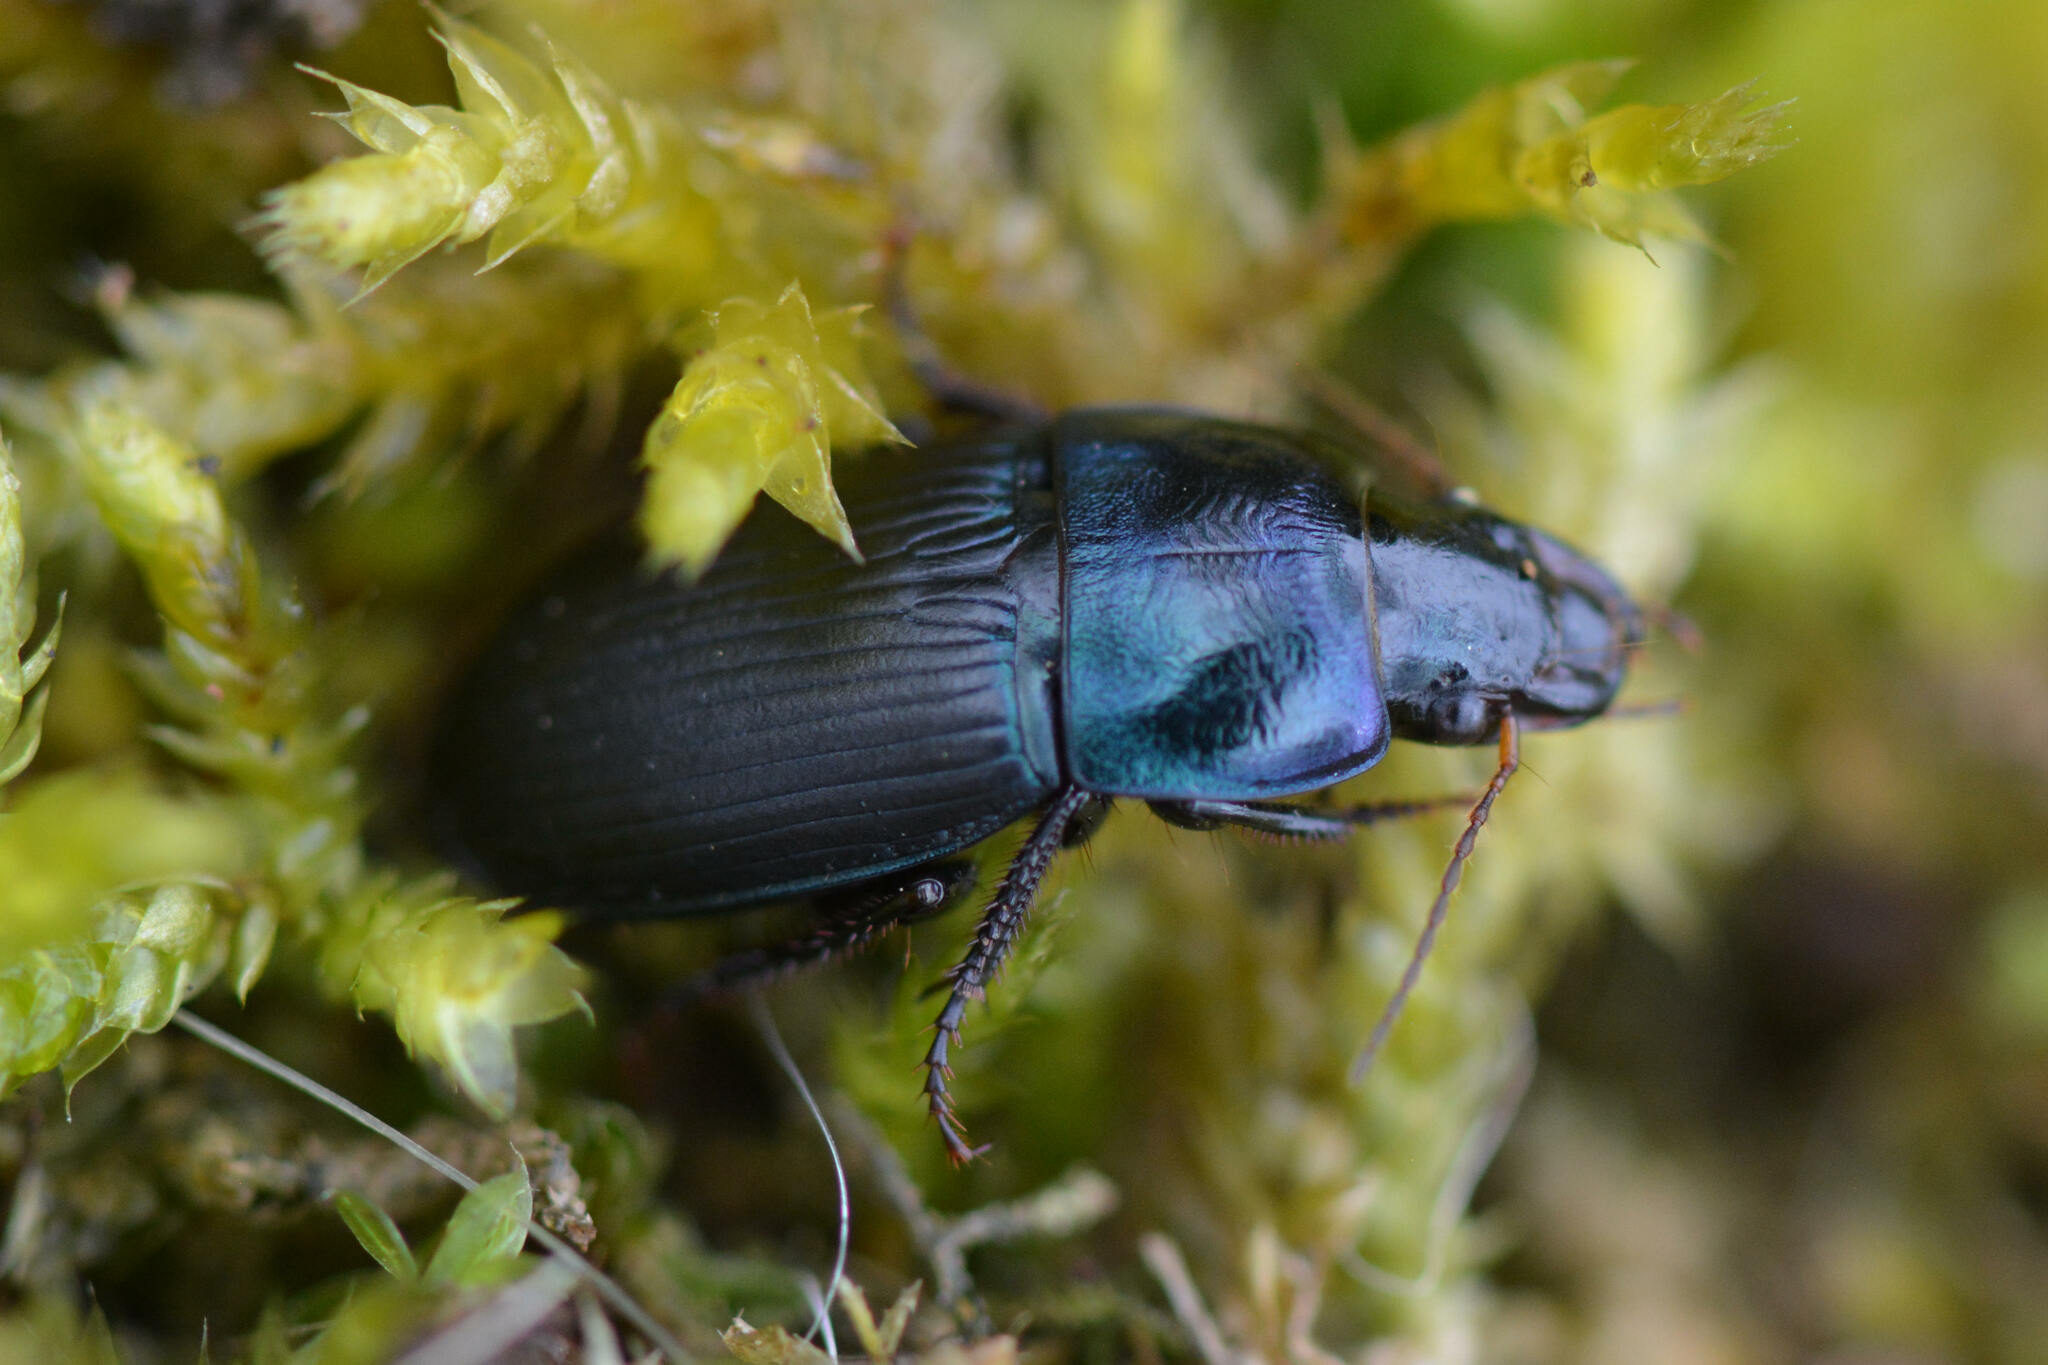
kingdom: Animalia
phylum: Arthropoda
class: Insecta
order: Coleoptera
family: Carabidae
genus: Harpalus
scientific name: Harpalus dimidiatus
